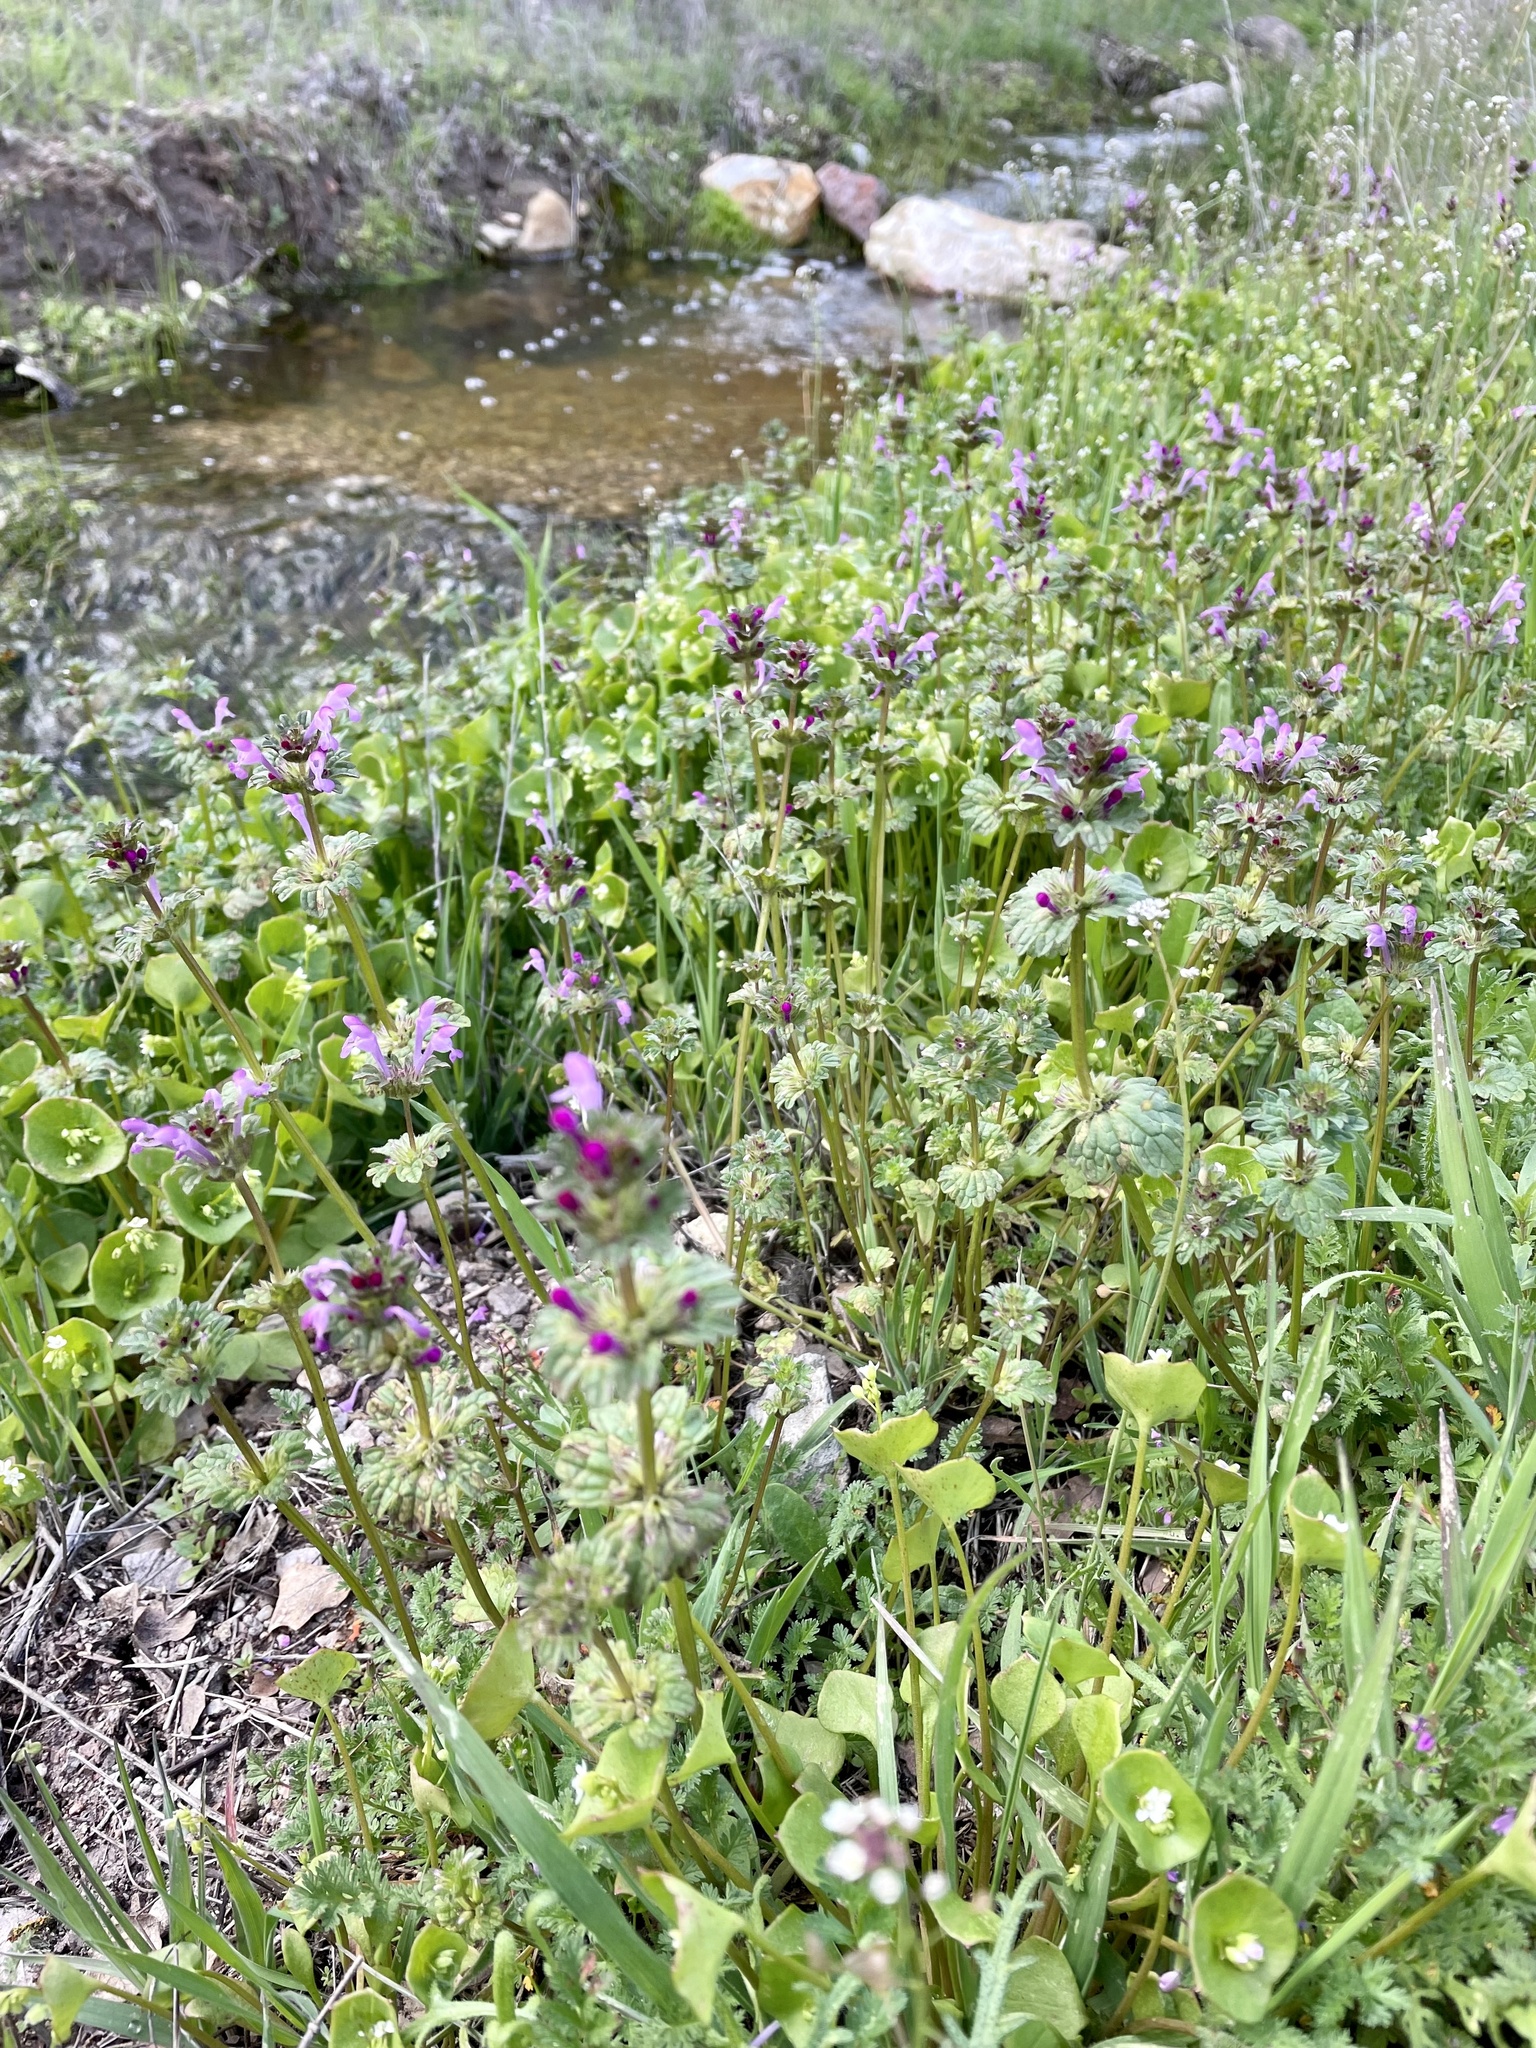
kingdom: Plantae
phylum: Tracheophyta
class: Magnoliopsida
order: Lamiales
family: Lamiaceae
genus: Lamium
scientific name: Lamium amplexicaule
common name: Henbit dead-nettle
